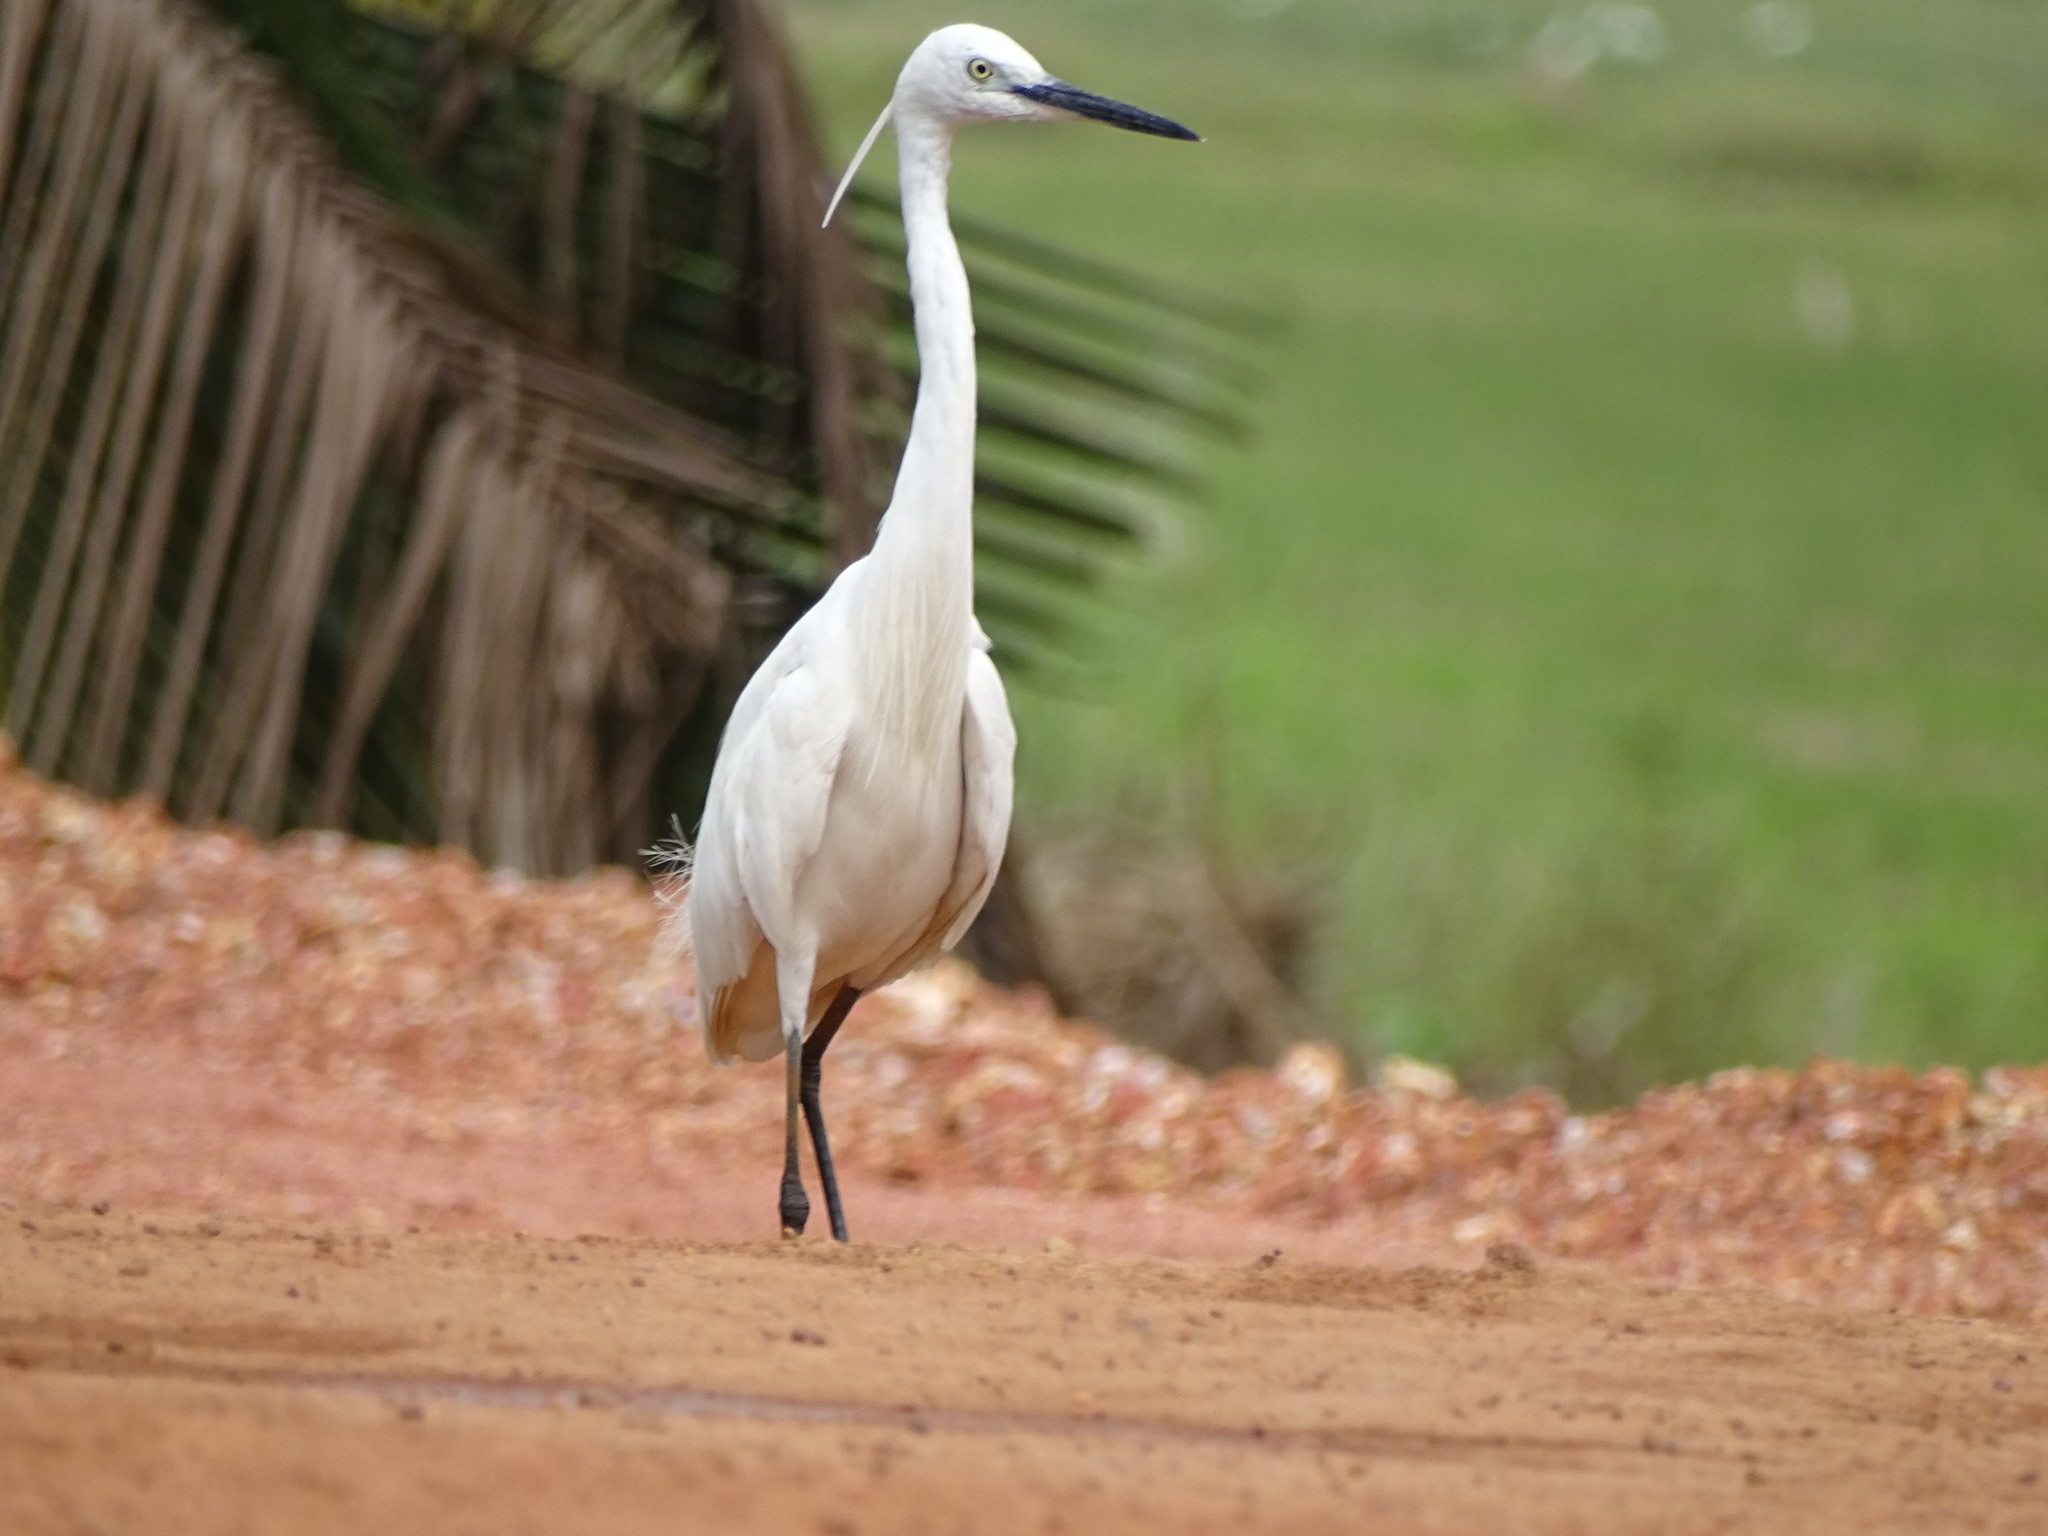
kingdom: Animalia
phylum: Chordata
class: Aves
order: Pelecaniformes
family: Ardeidae
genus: Egretta
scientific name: Egretta garzetta
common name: Little egret
